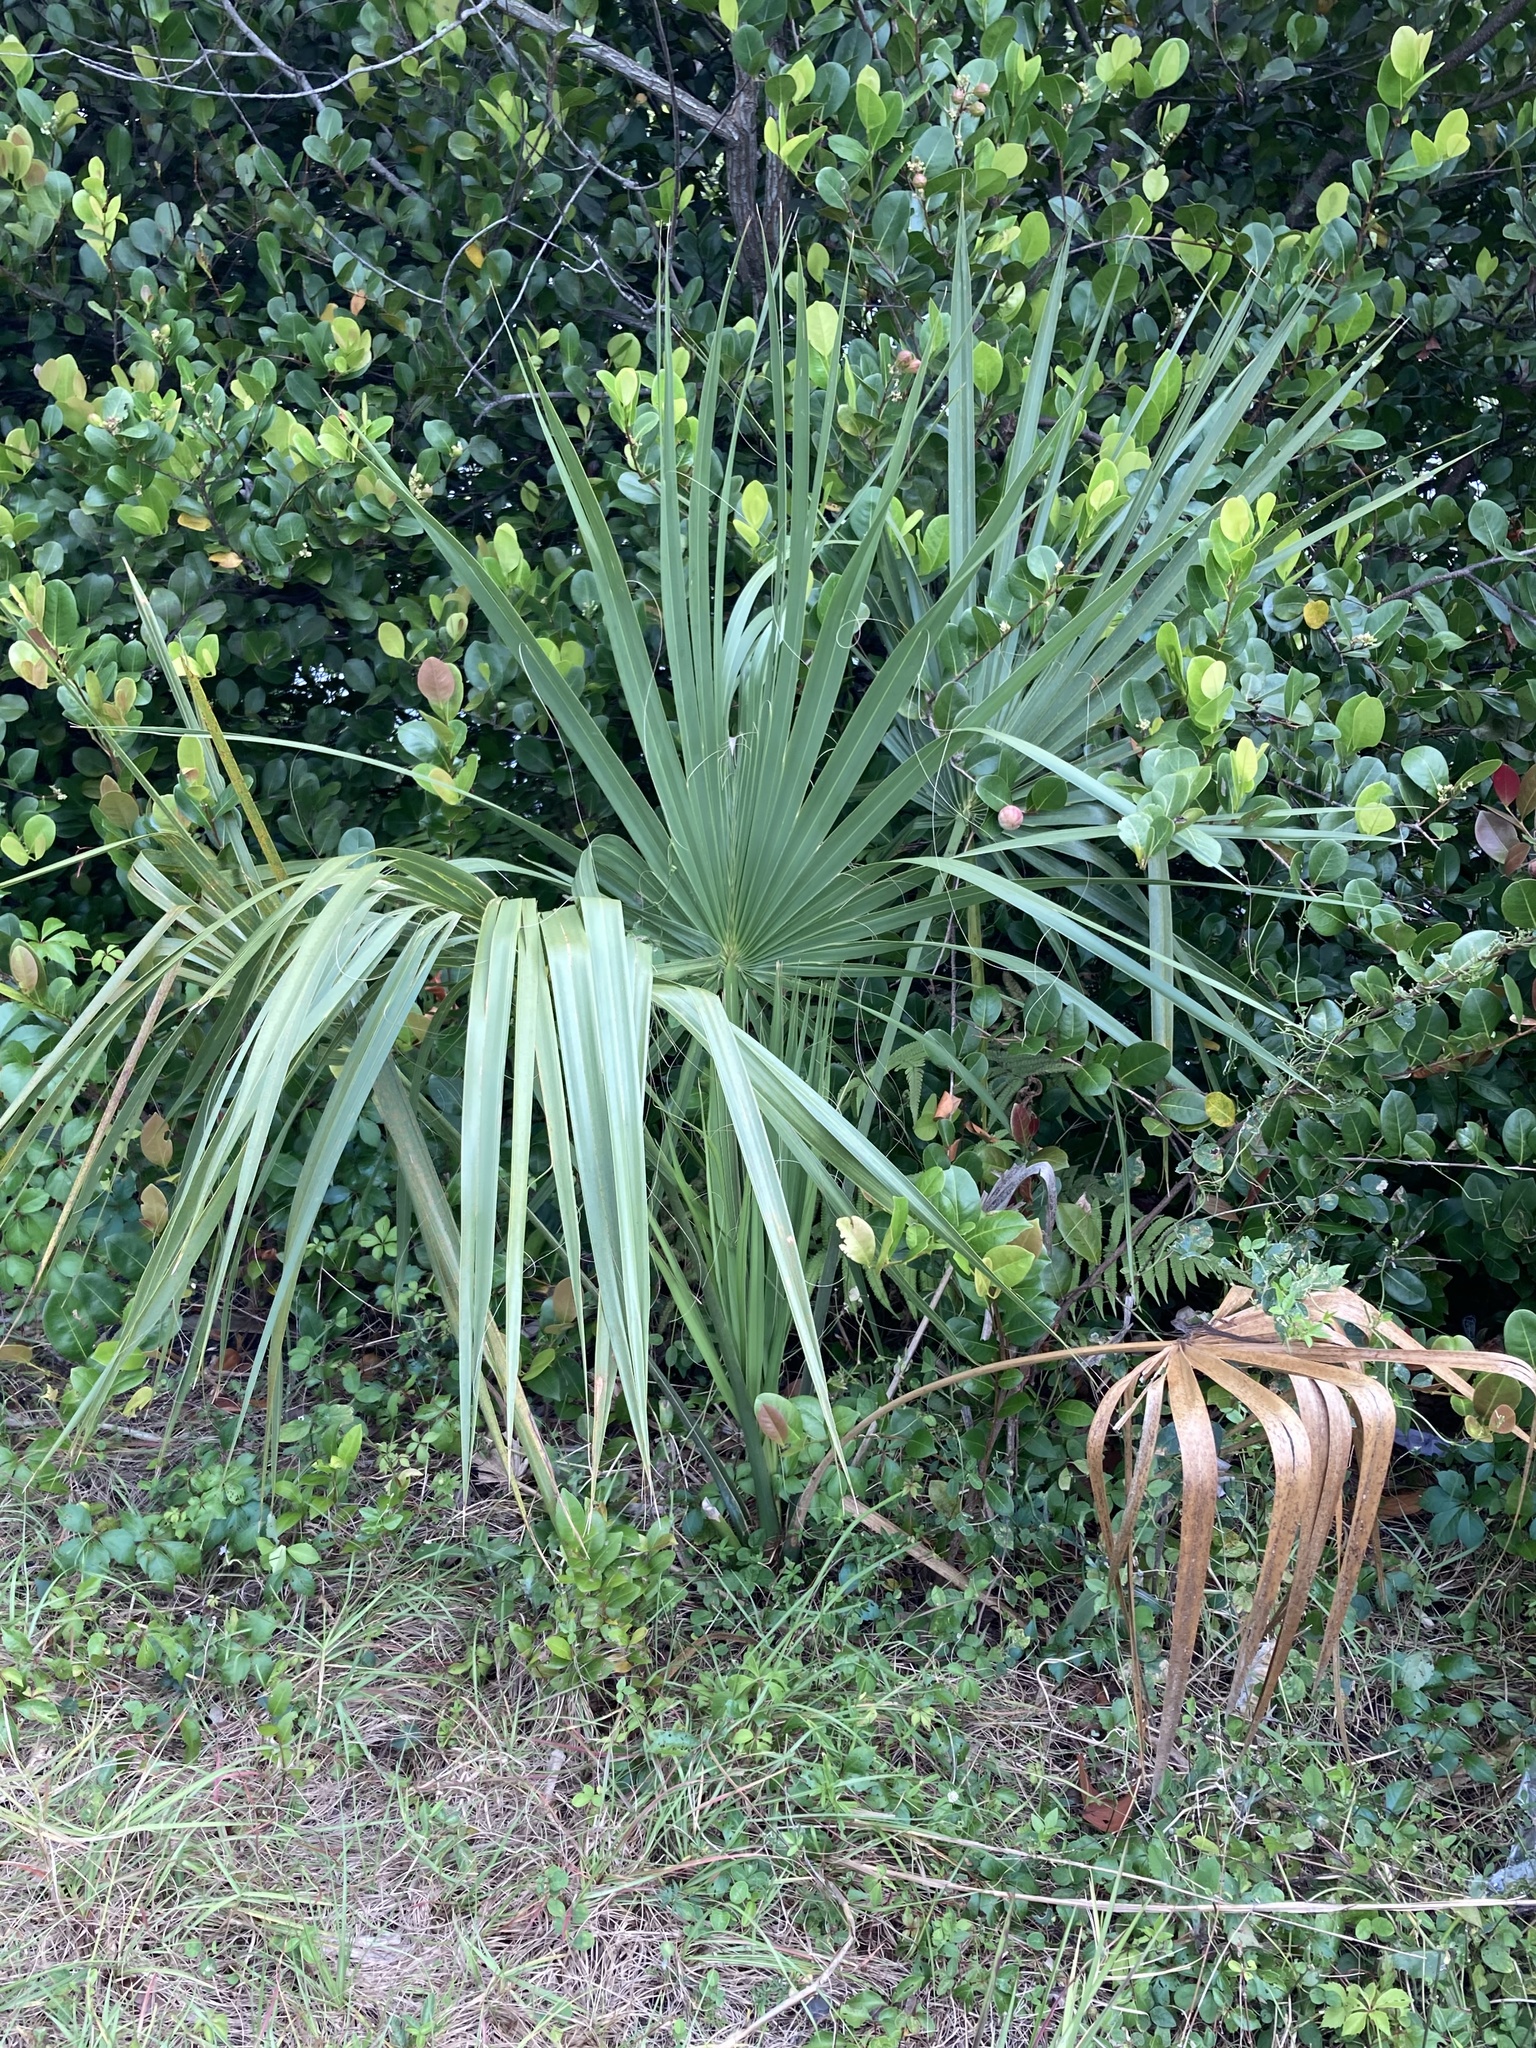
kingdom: Plantae
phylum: Tracheophyta
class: Liliopsida
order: Arecales
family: Arecaceae
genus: Sabal
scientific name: Sabal palmetto
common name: Blue palmetto
